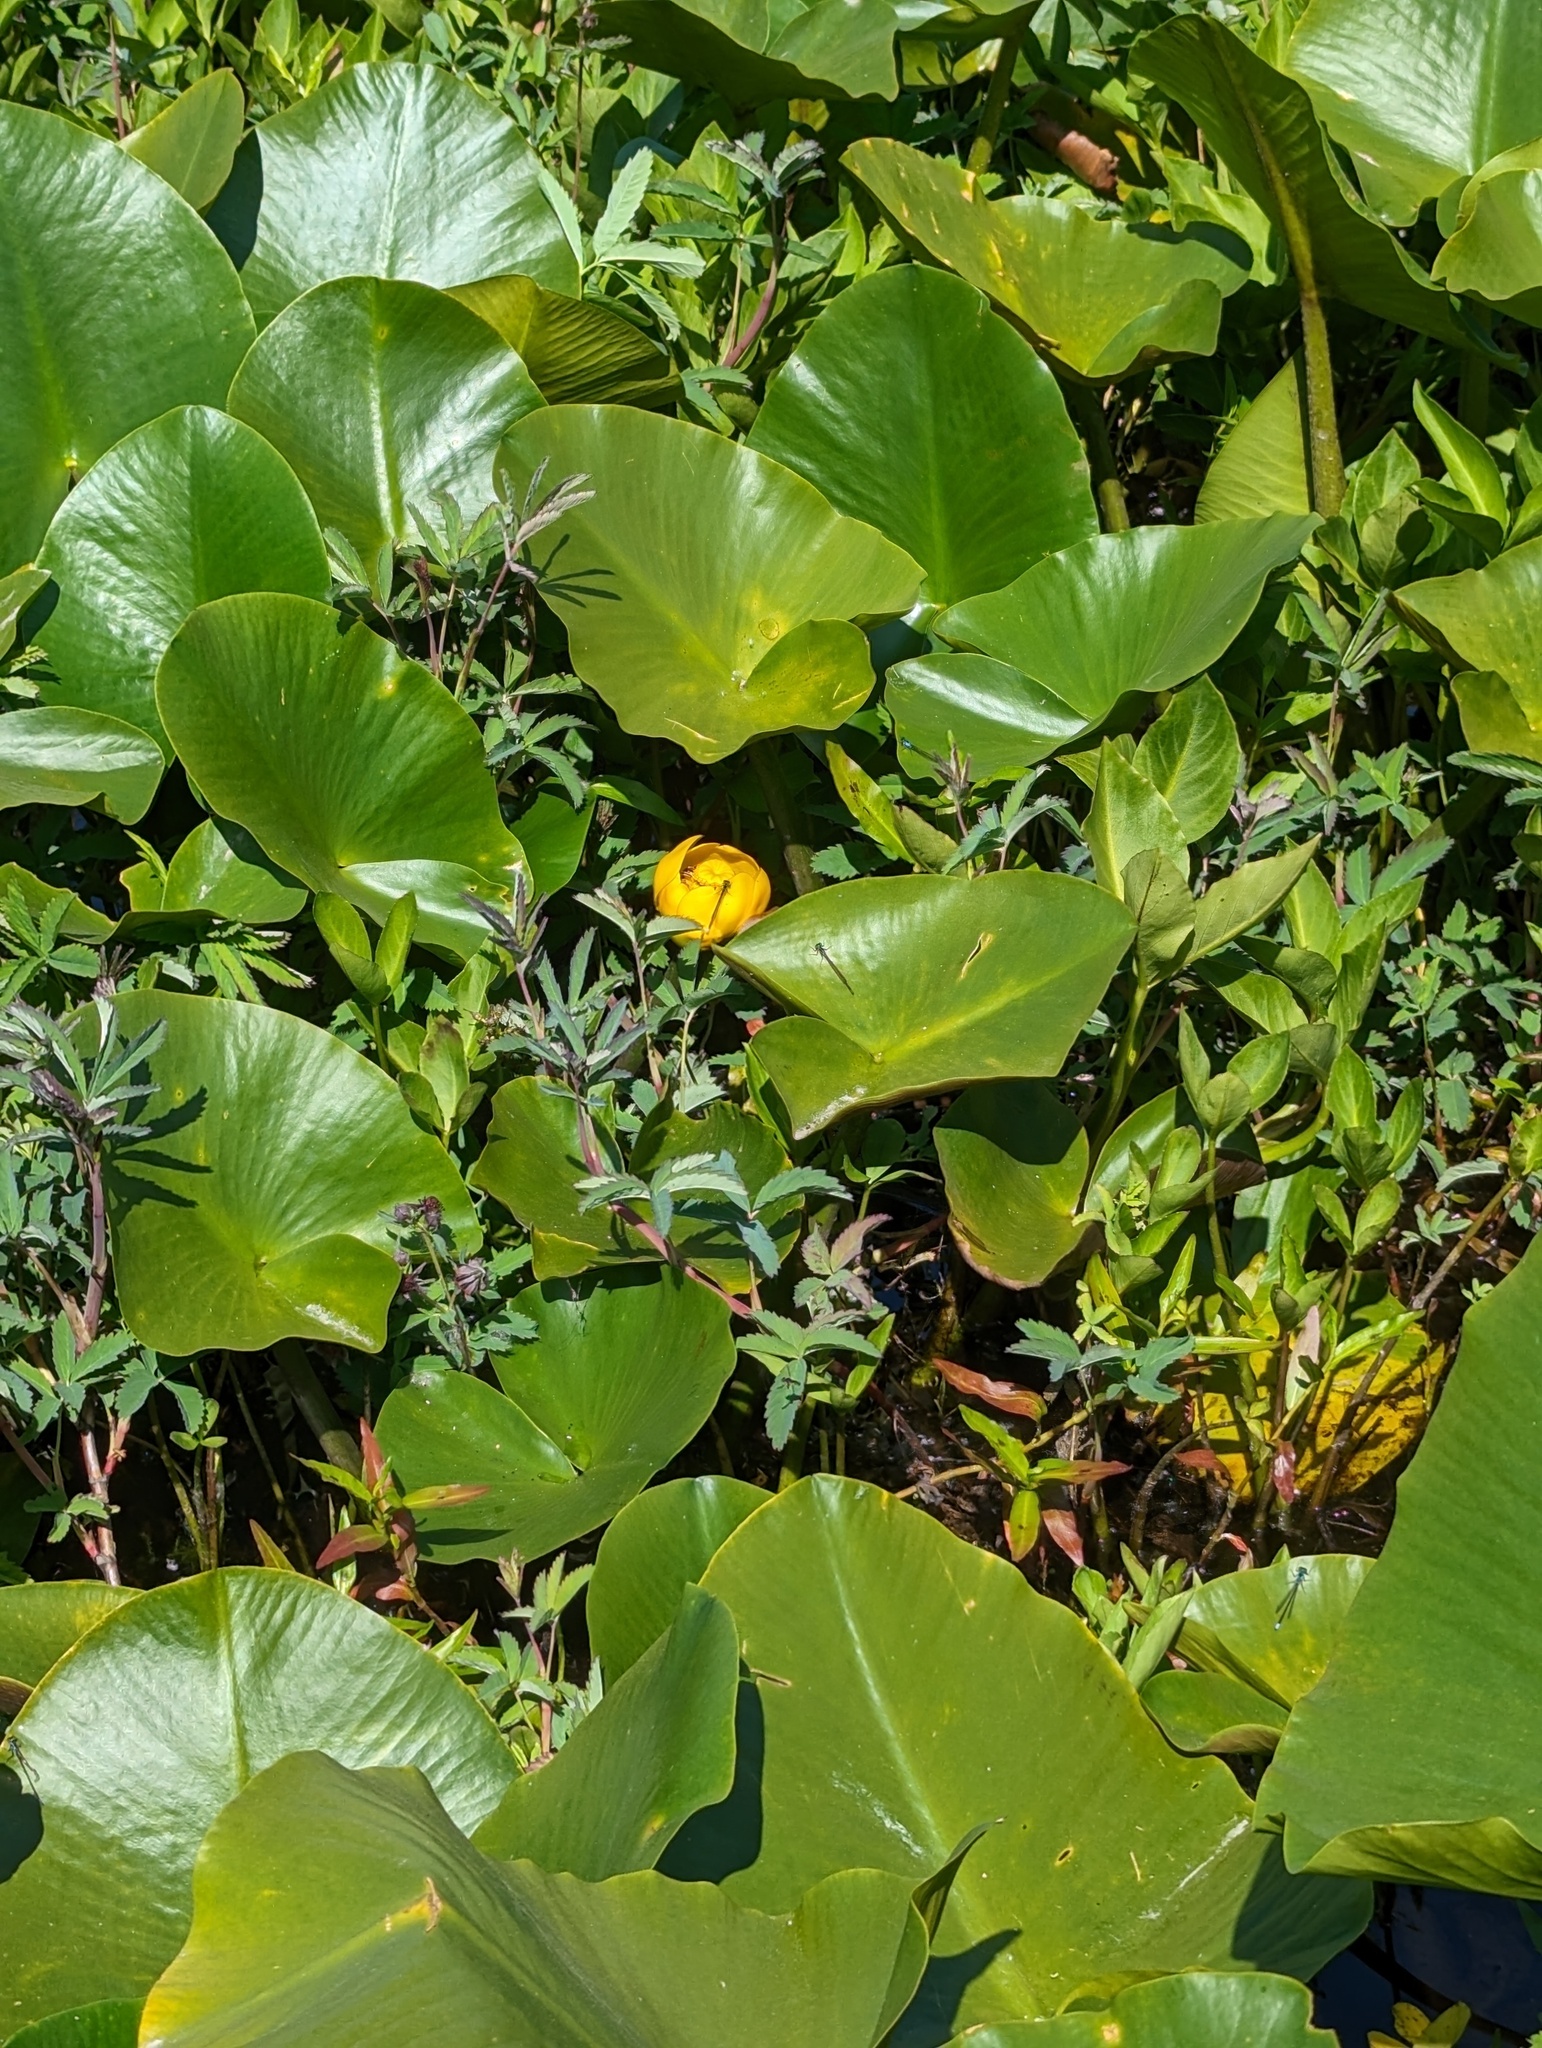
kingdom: Plantae
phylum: Tracheophyta
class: Magnoliopsida
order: Nymphaeales
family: Nymphaeaceae
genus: Nuphar
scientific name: Nuphar polysepala
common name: Rocky mountain cow-lily
